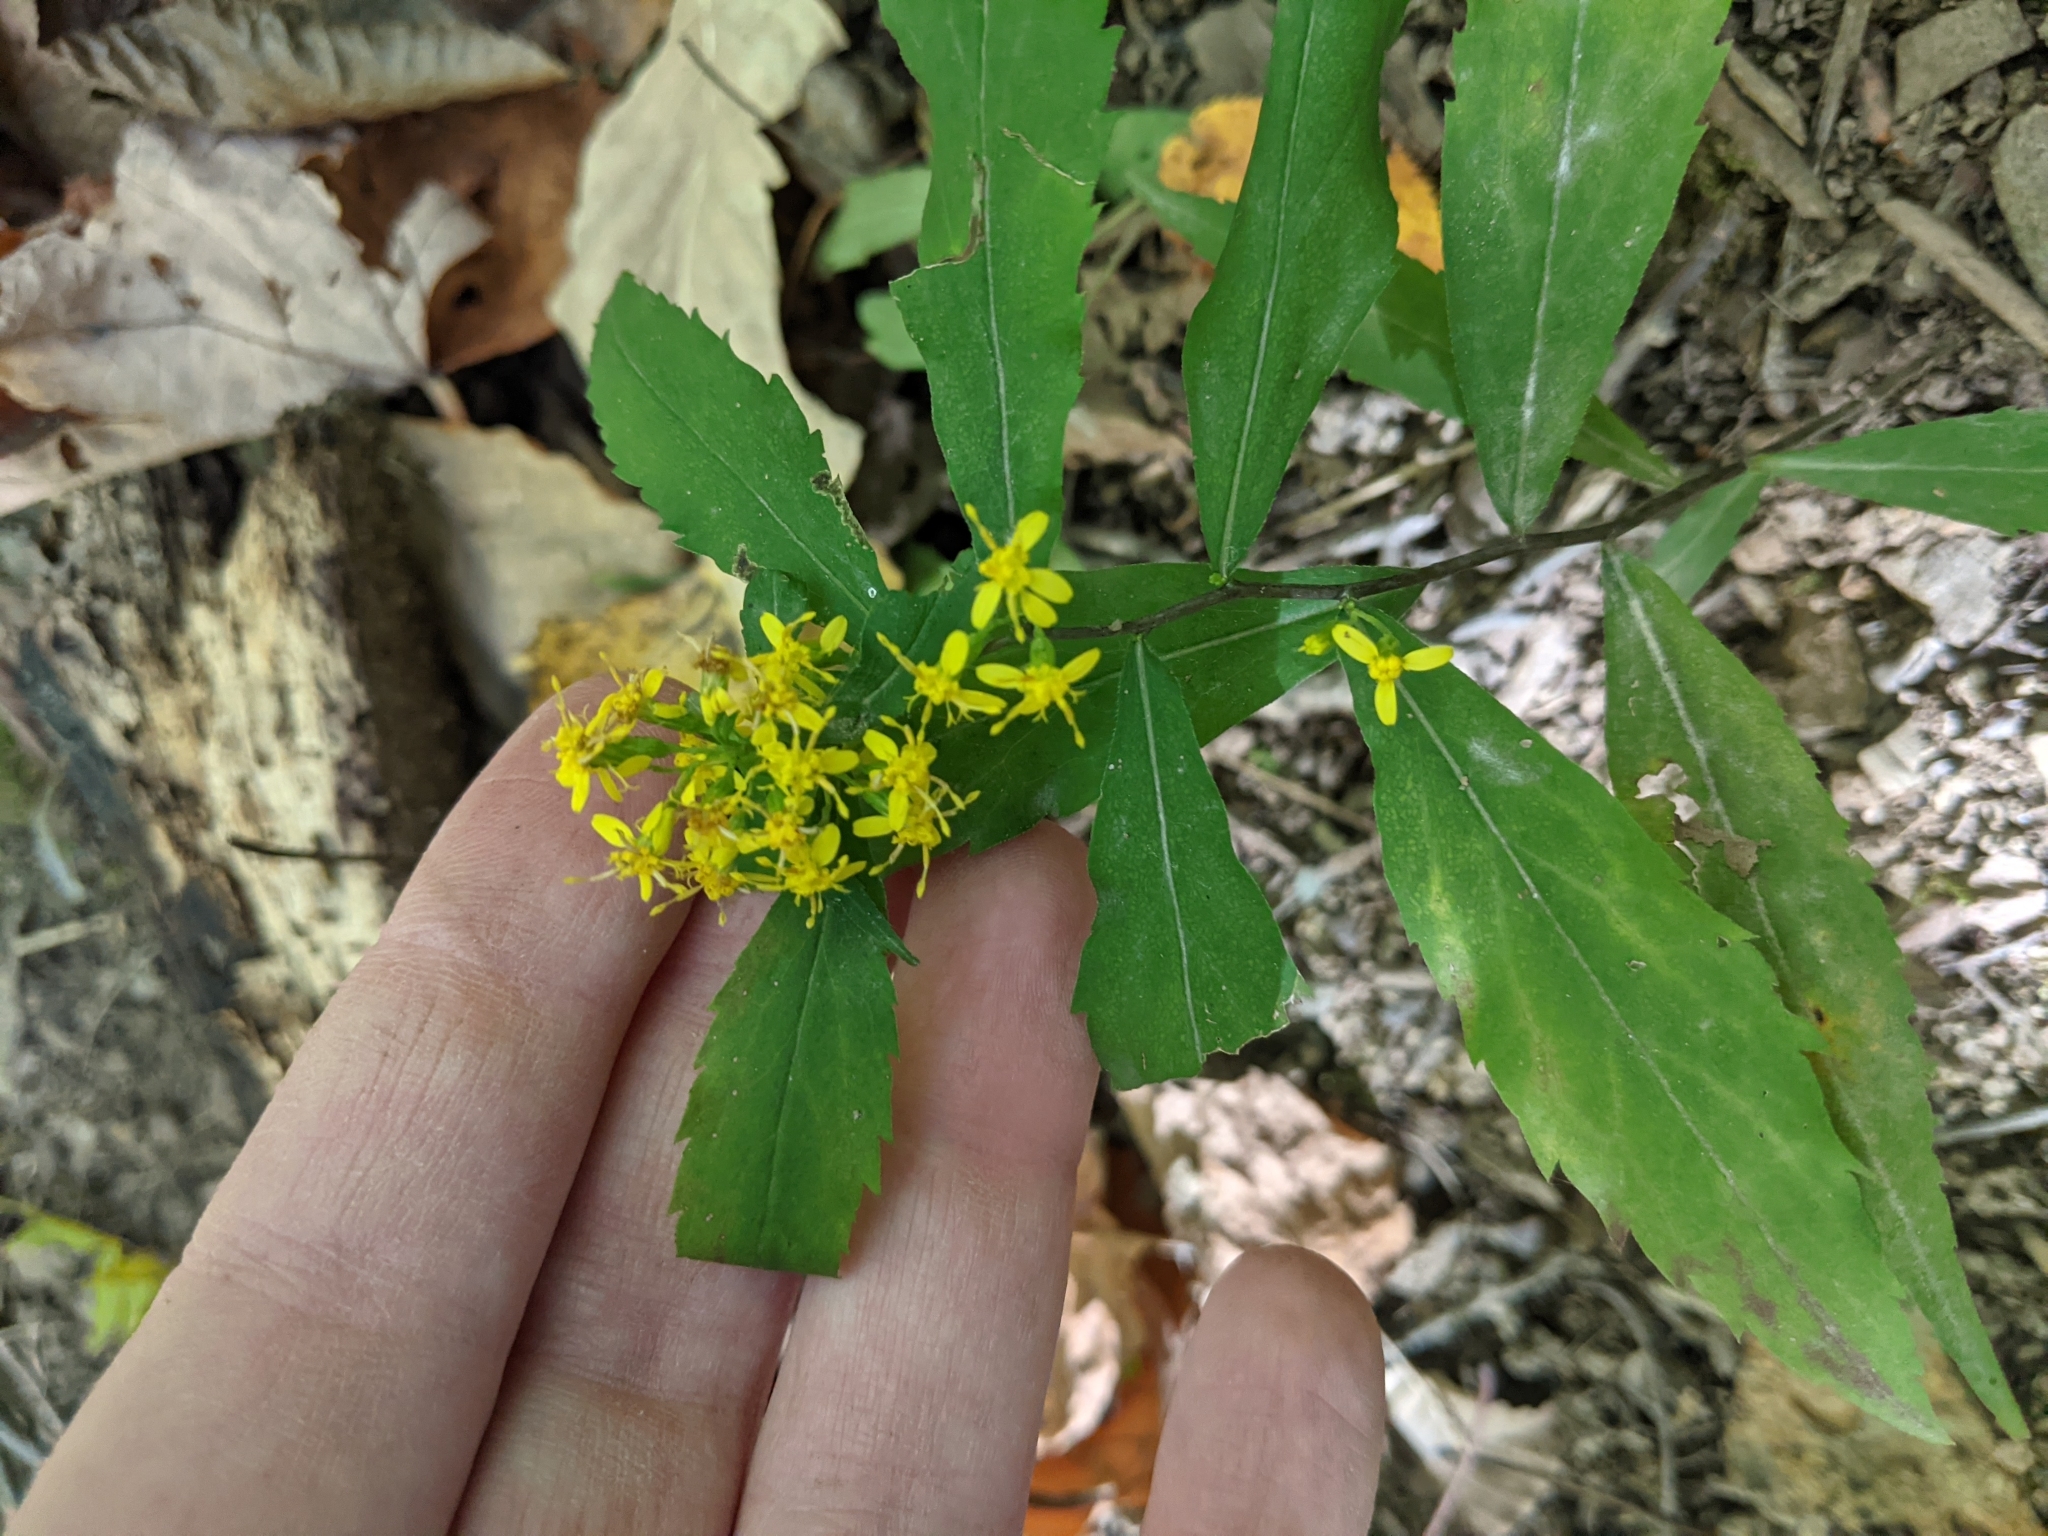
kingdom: Plantae
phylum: Tracheophyta
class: Magnoliopsida
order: Asterales
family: Asteraceae
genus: Solidago
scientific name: Solidago caesia
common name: Woodland goldenrod
